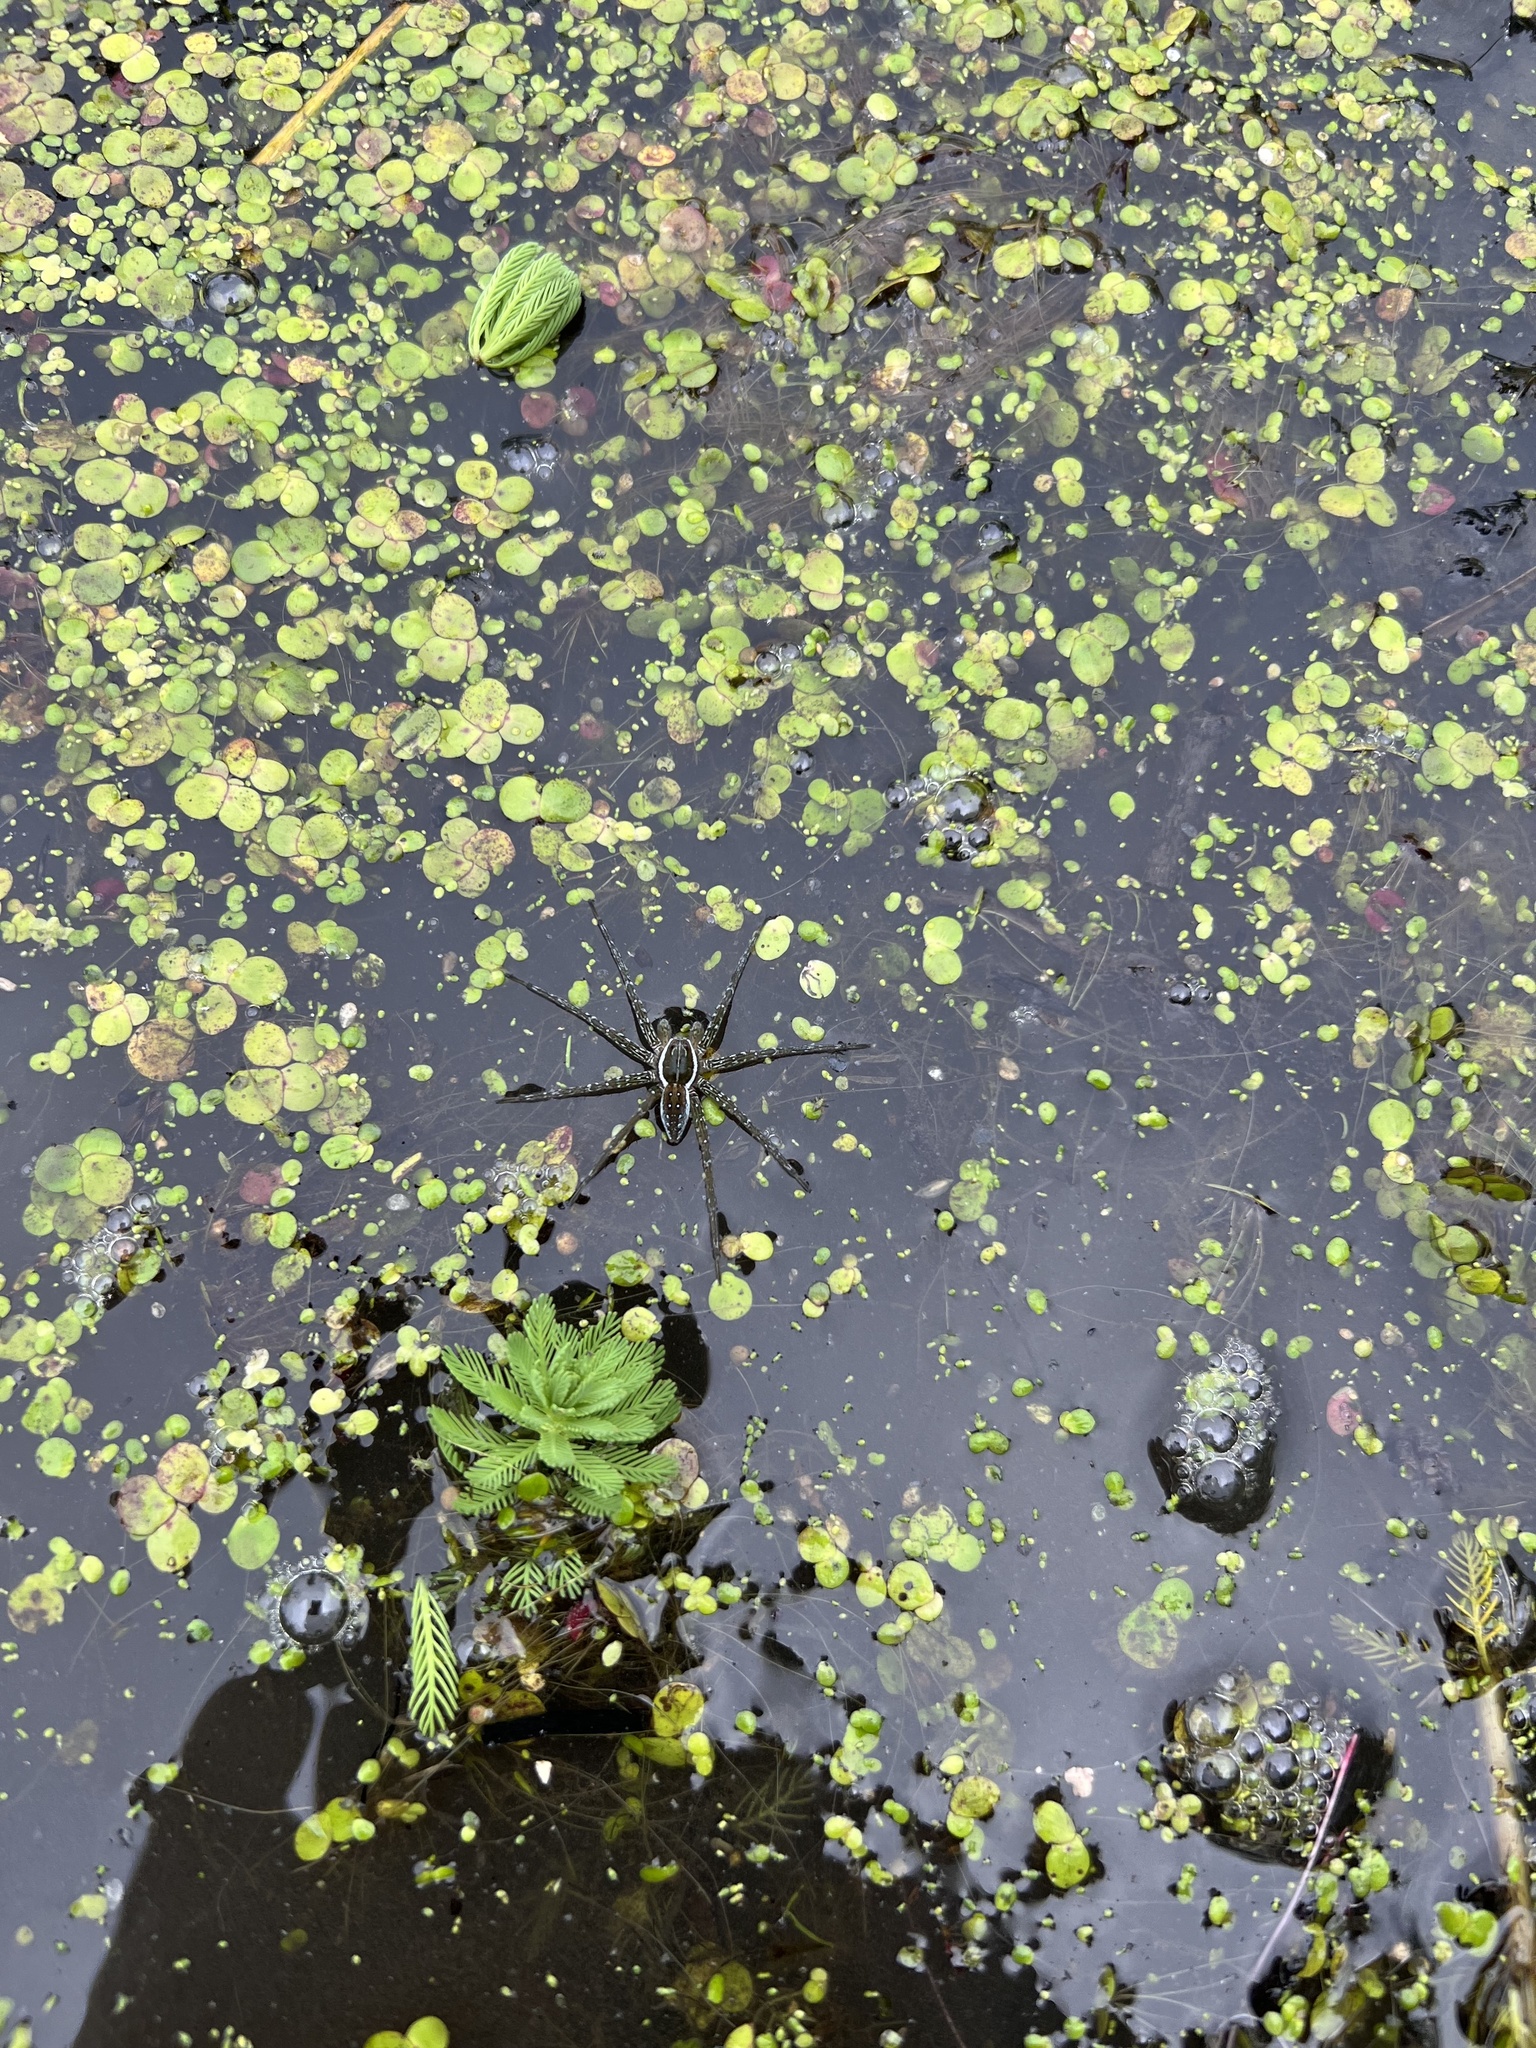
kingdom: Animalia
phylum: Arthropoda
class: Arachnida
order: Araneae
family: Pisauridae
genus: Dolomedes
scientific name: Dolomedes triton
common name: Six-spotted fishing spider
